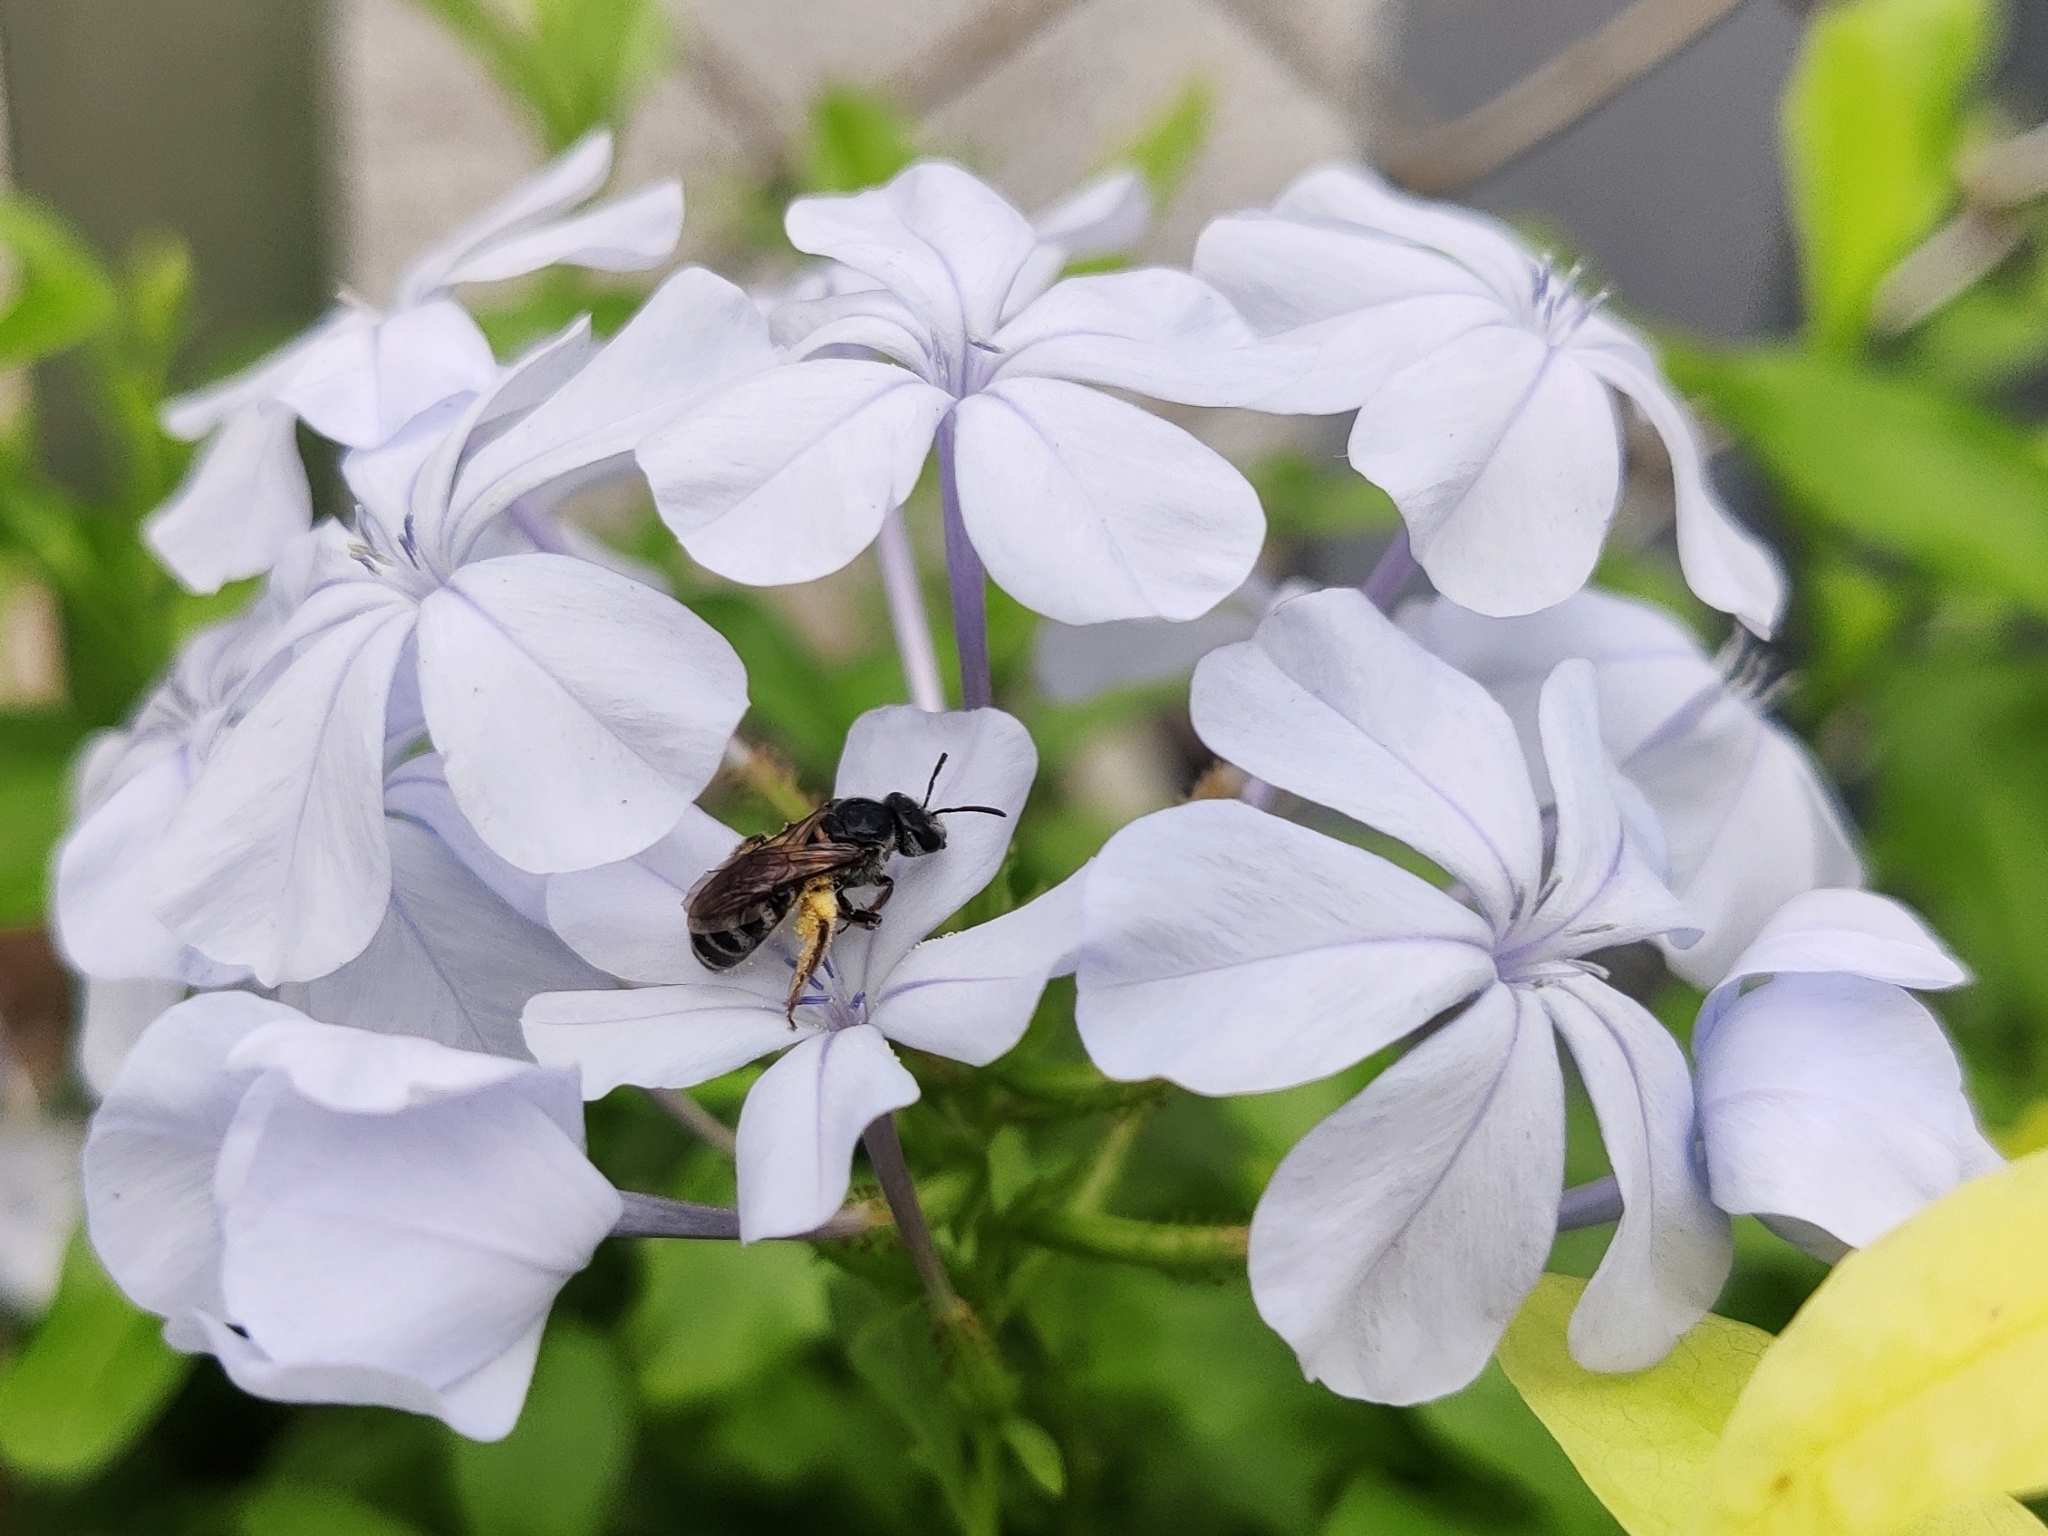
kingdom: Animalia
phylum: Arthropoda
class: Insecta
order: Hymenoptera
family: Halictidae
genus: Lasioglossum
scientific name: Lasioglossum albescens
